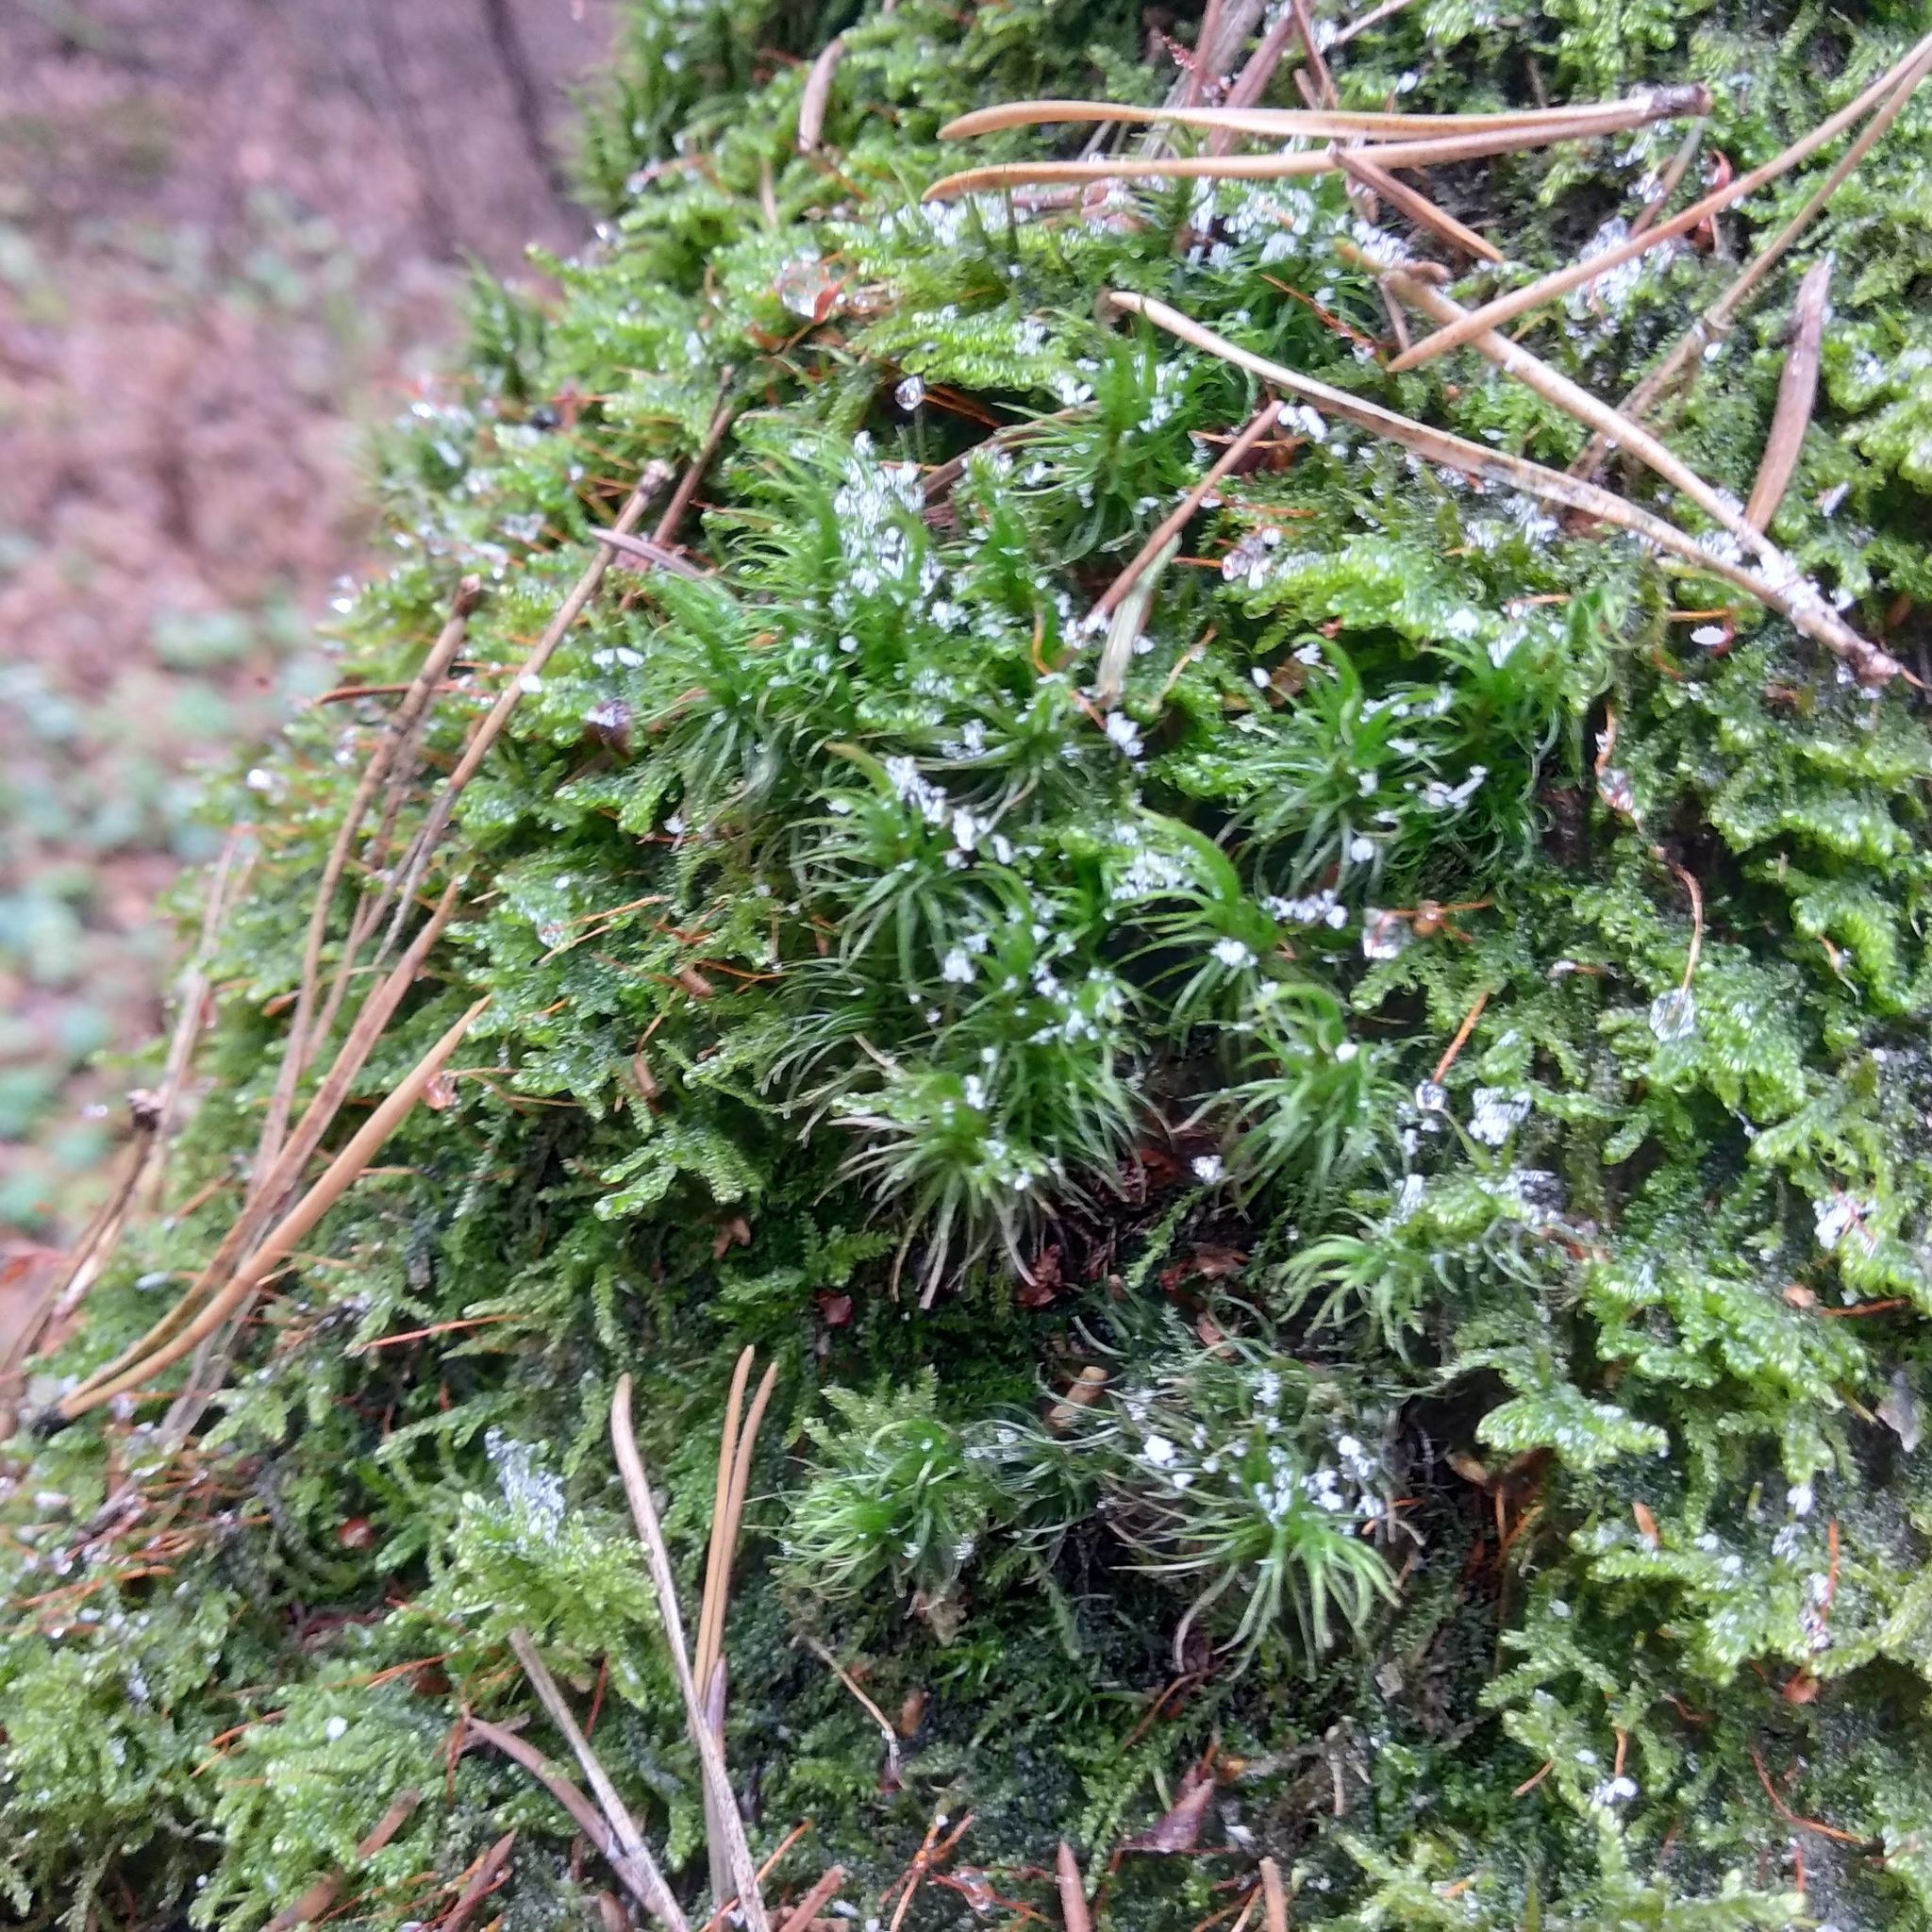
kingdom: Plantae
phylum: Bryophyta
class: Bryopsida
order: Dicranales
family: Dicranaceae
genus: Dicranum
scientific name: Dicranum scoparium
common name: Broom fork-moss
